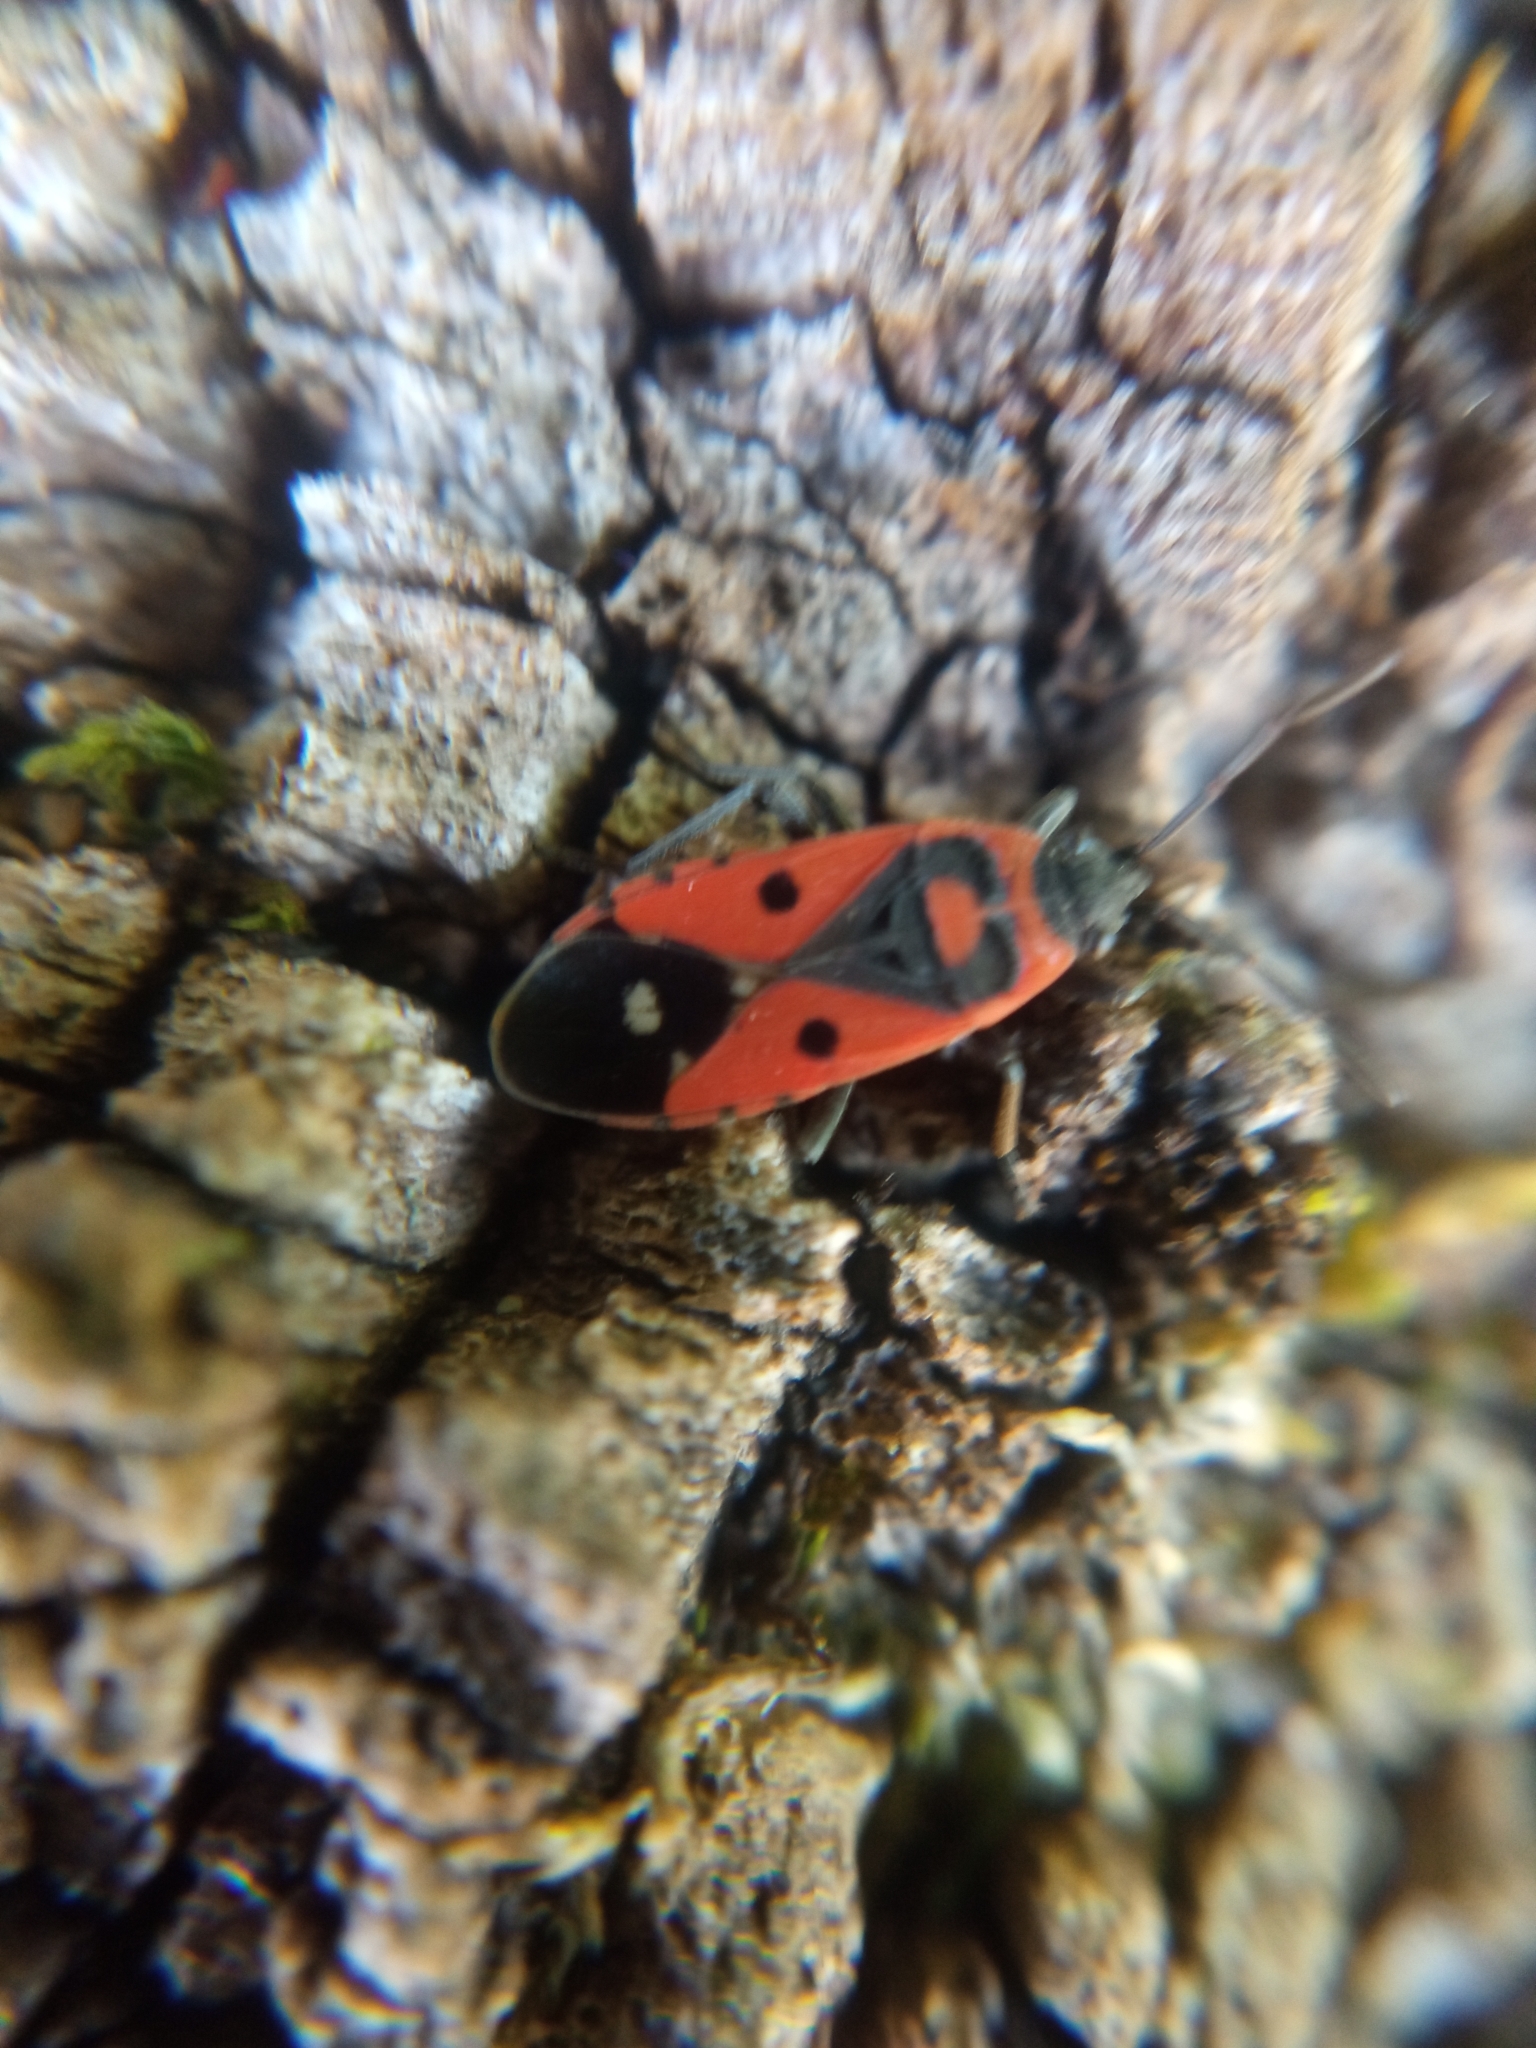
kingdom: Animalia
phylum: Arthropoda
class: Insecta
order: Hemiptera
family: Lygaeidae
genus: Melanocoryphus
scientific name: Melanocoryphus albomaculatus
